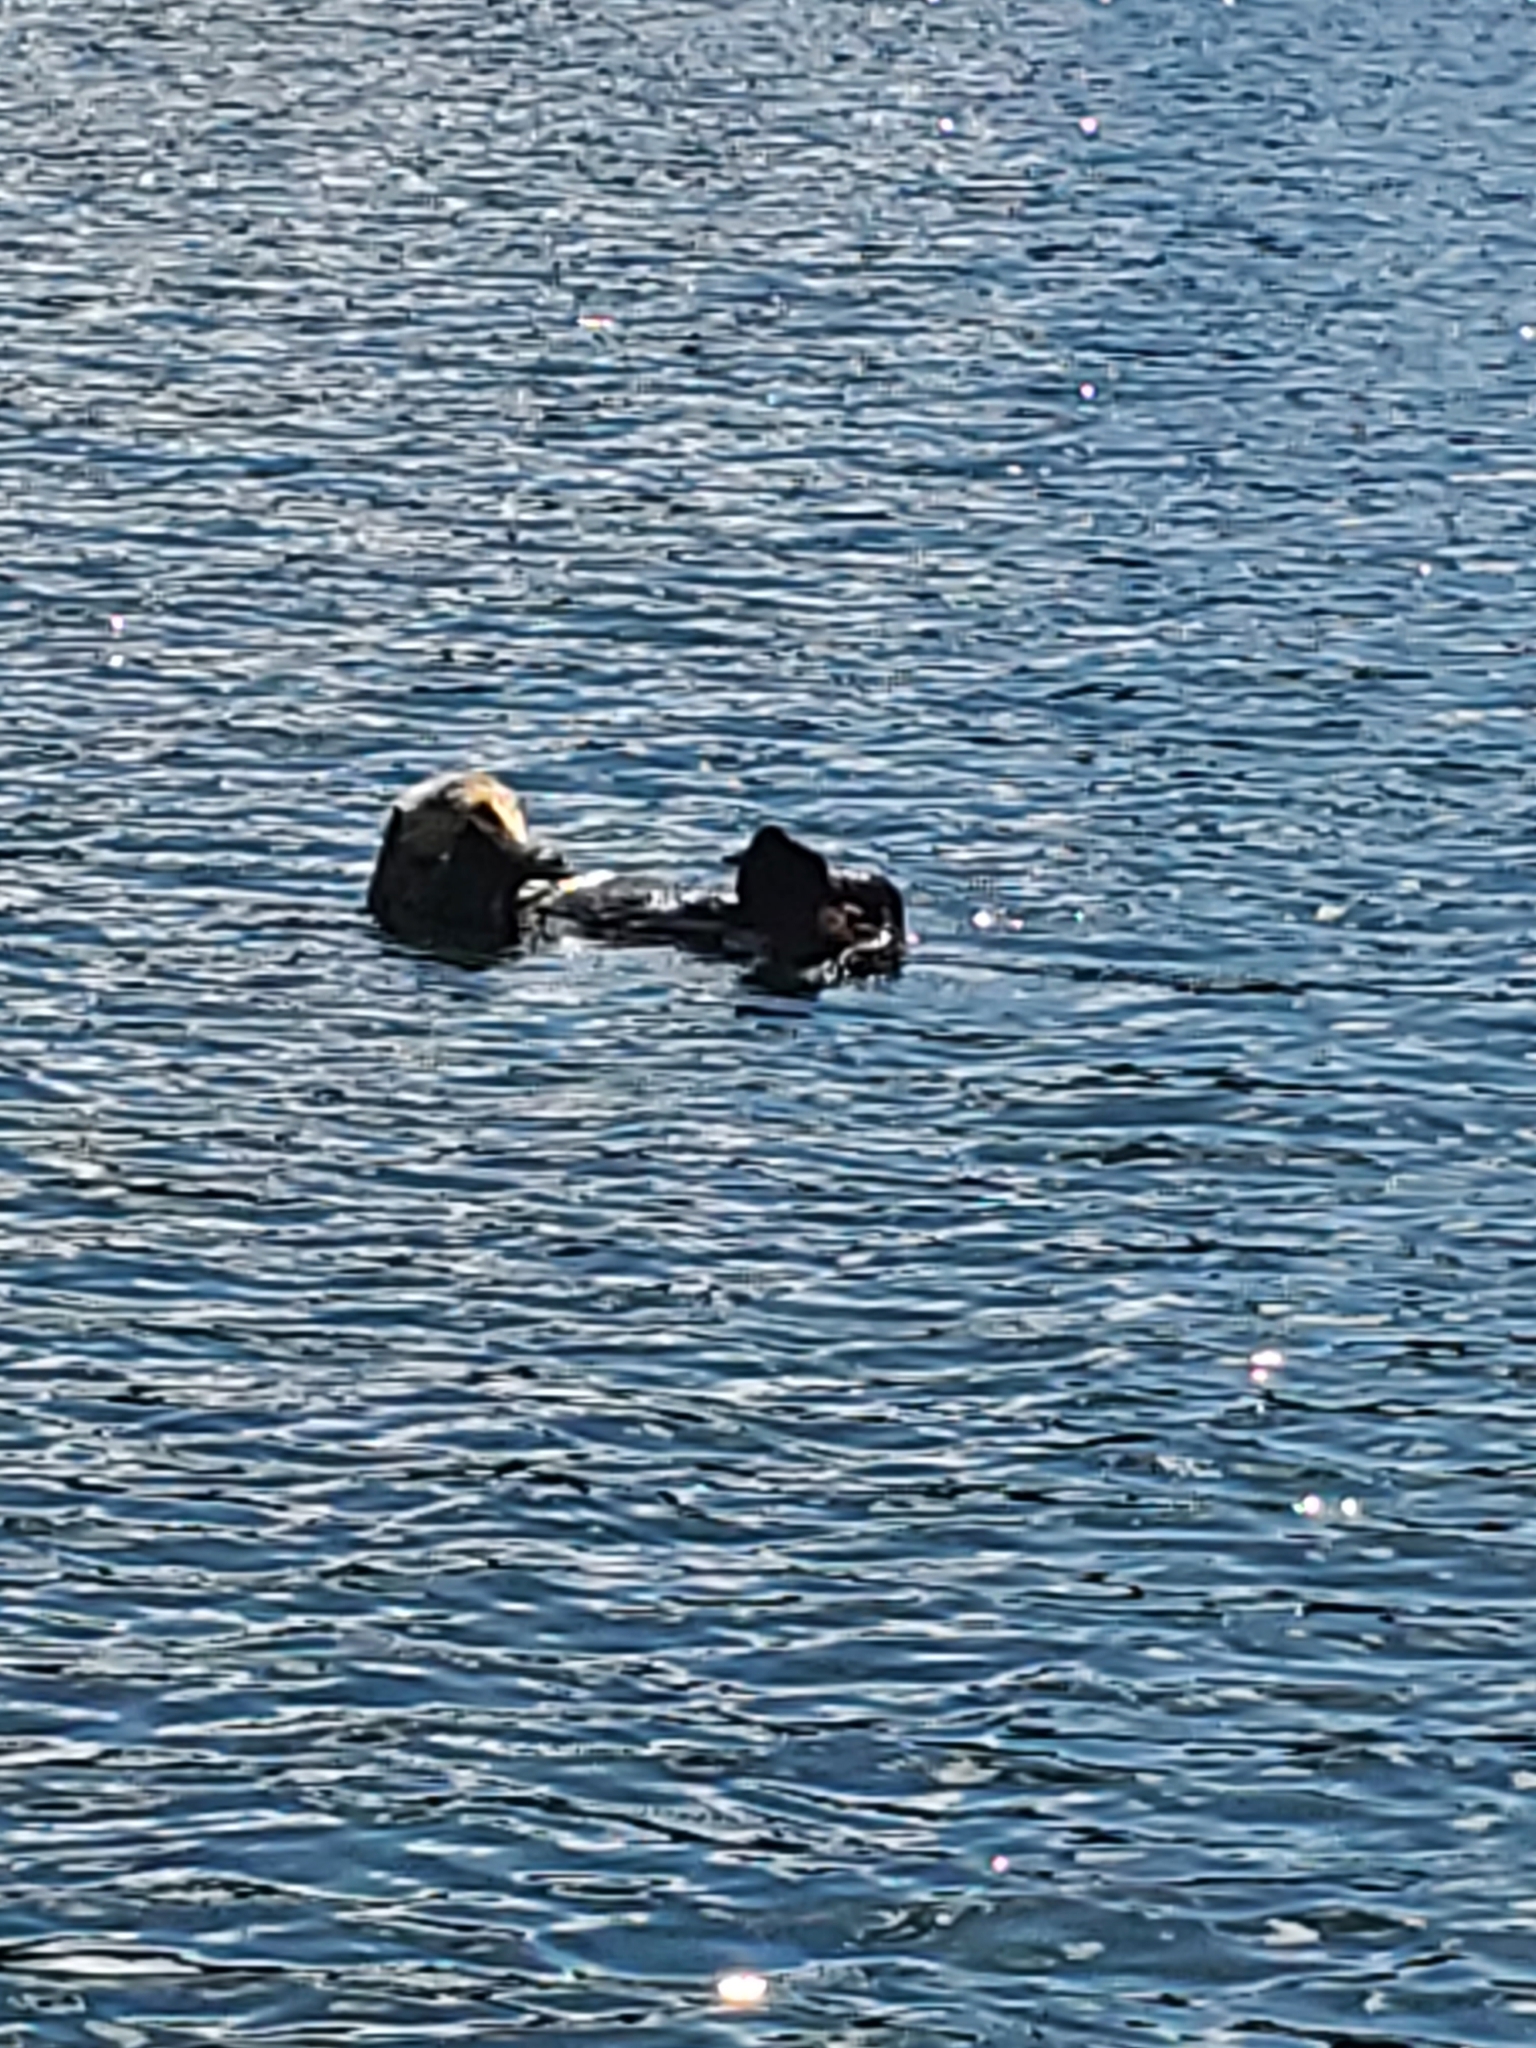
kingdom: Animalia
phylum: Chordata
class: Mammalia
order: Carnivora
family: Mustelidae
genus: Enhydra
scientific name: Enhydra lutris
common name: Sea otter
